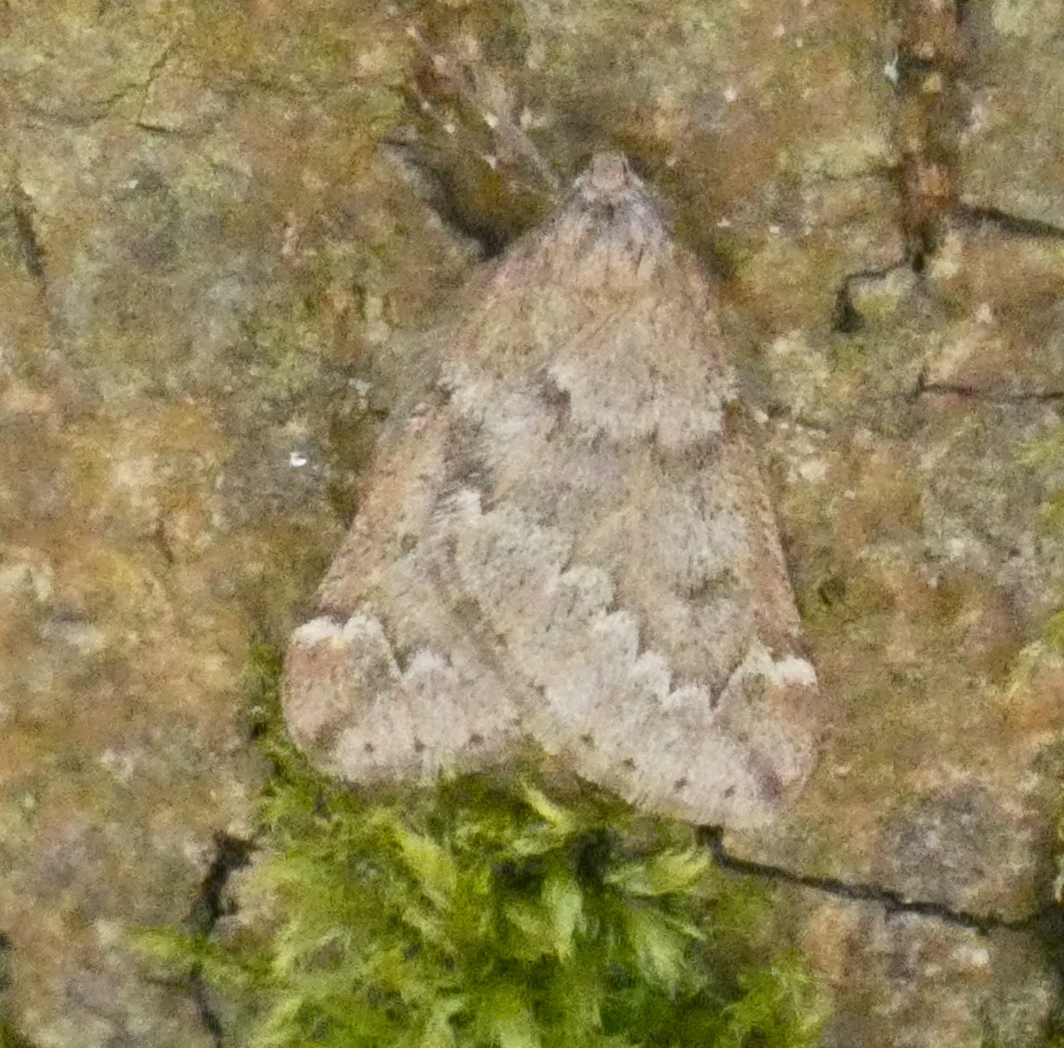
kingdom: Animalia
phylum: Arthropoda
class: Insecta
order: Lepidoptera
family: Geometridae
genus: Alsophila
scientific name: Alsophila aescularia
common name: March moth
